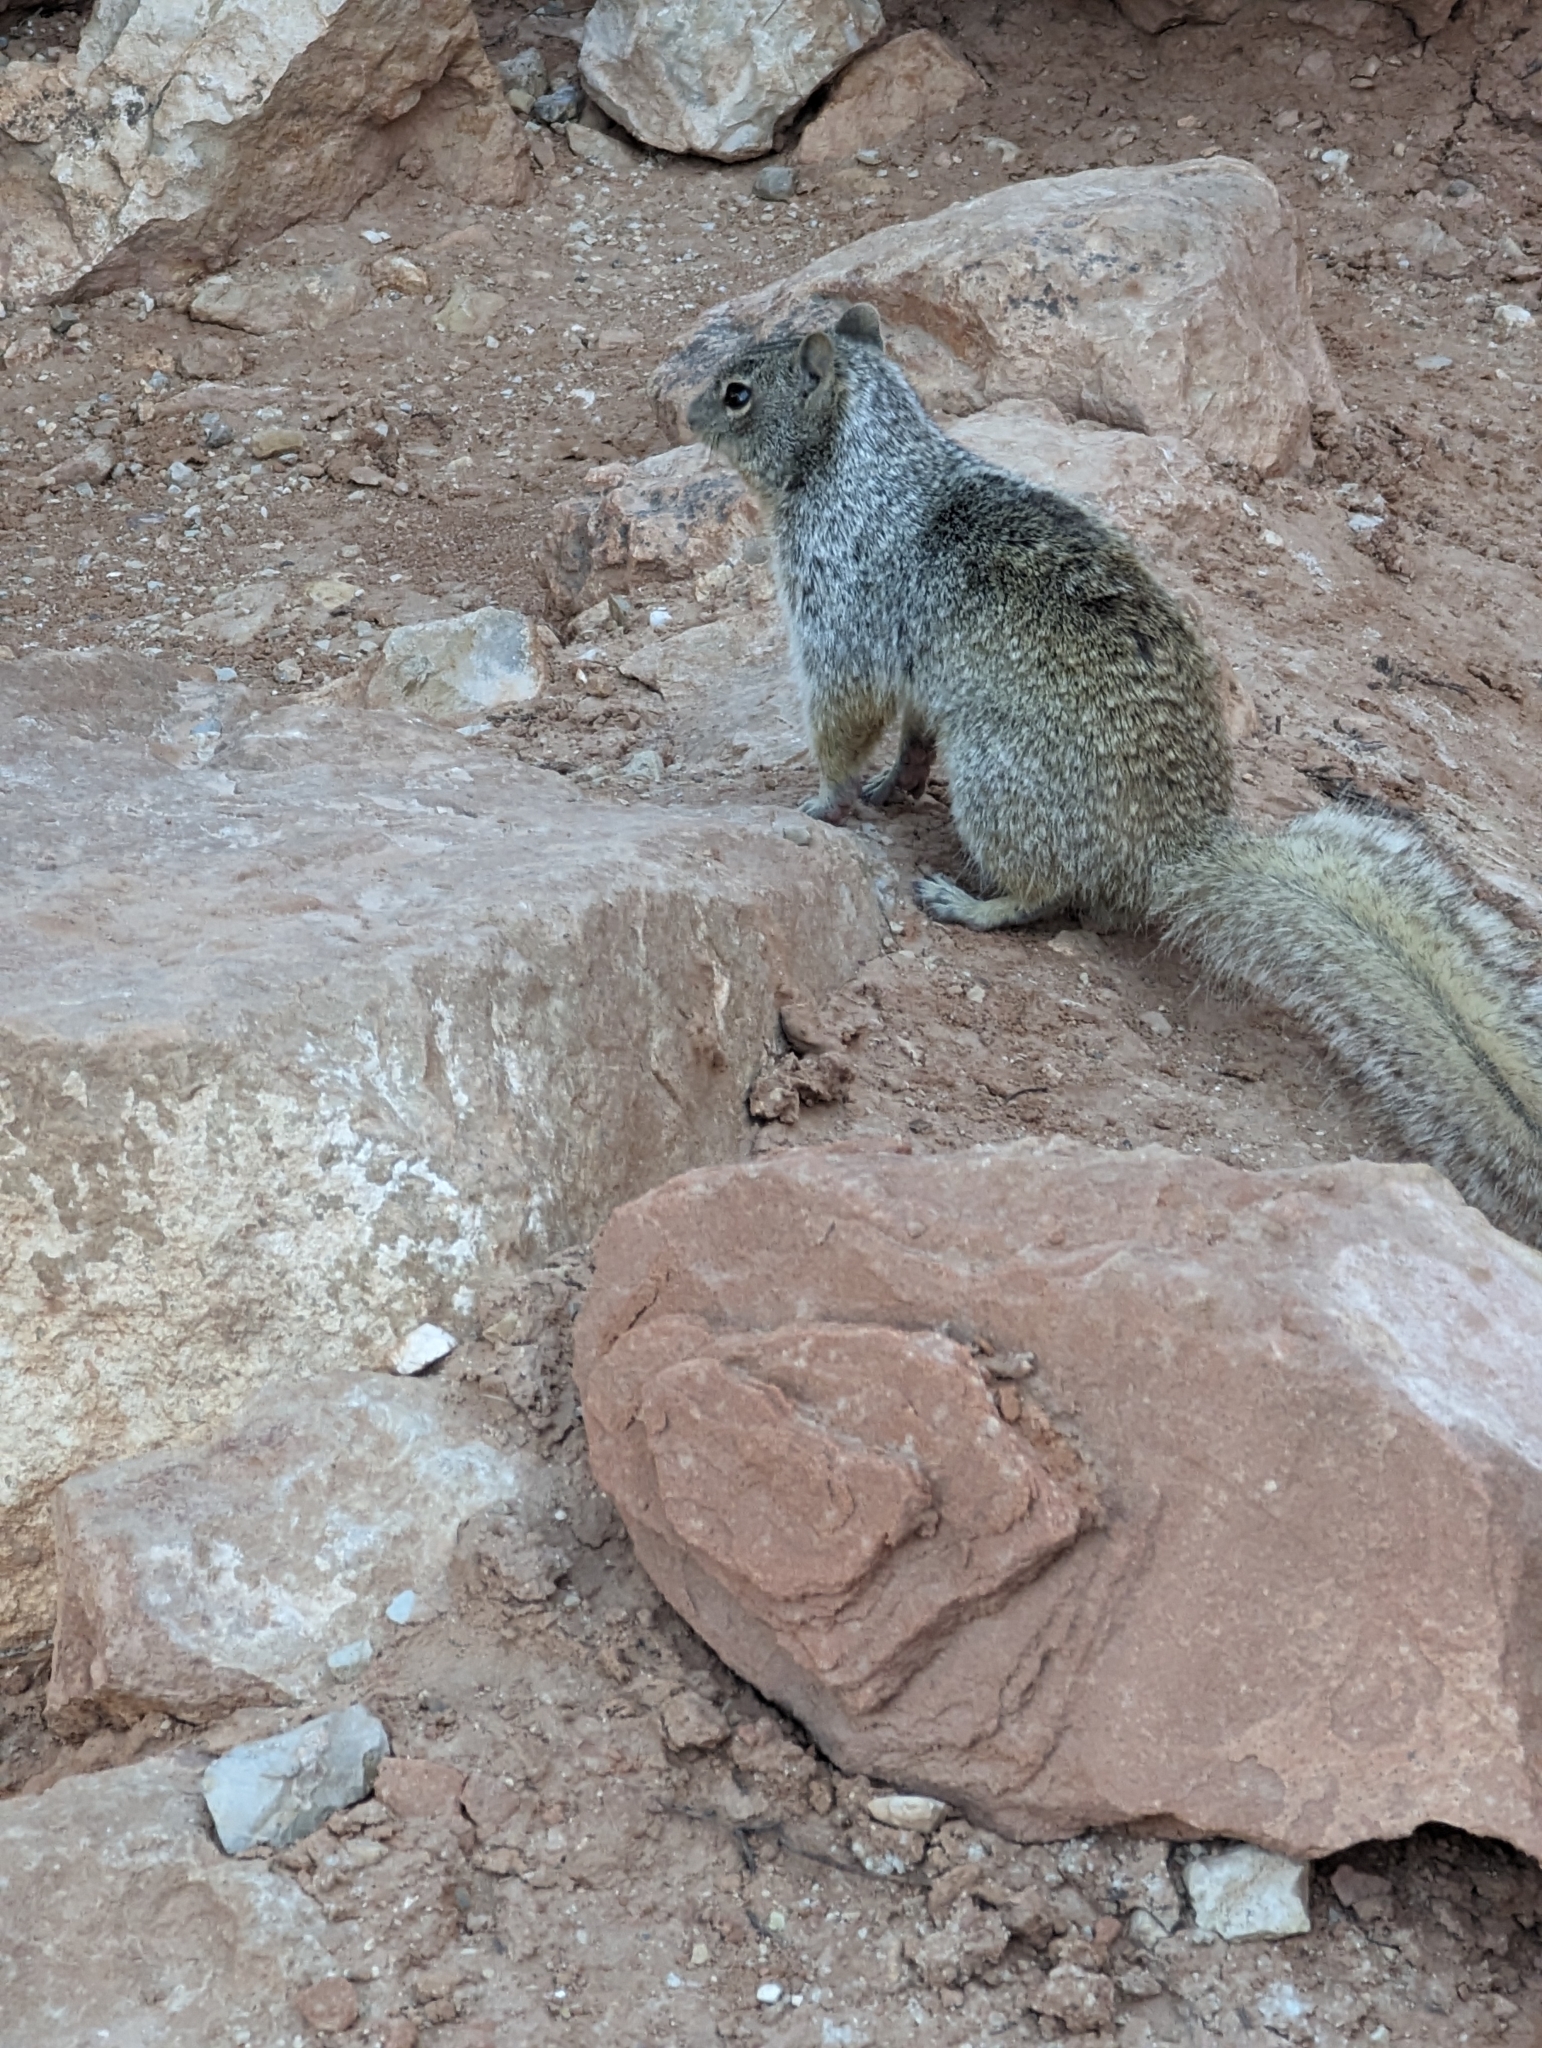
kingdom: Animalia
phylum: Chordata
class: Mammalia
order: Rodentia
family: Sciuridae
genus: Otospermophilus
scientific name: Otospermophilus variegatus
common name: Rock squirrel
